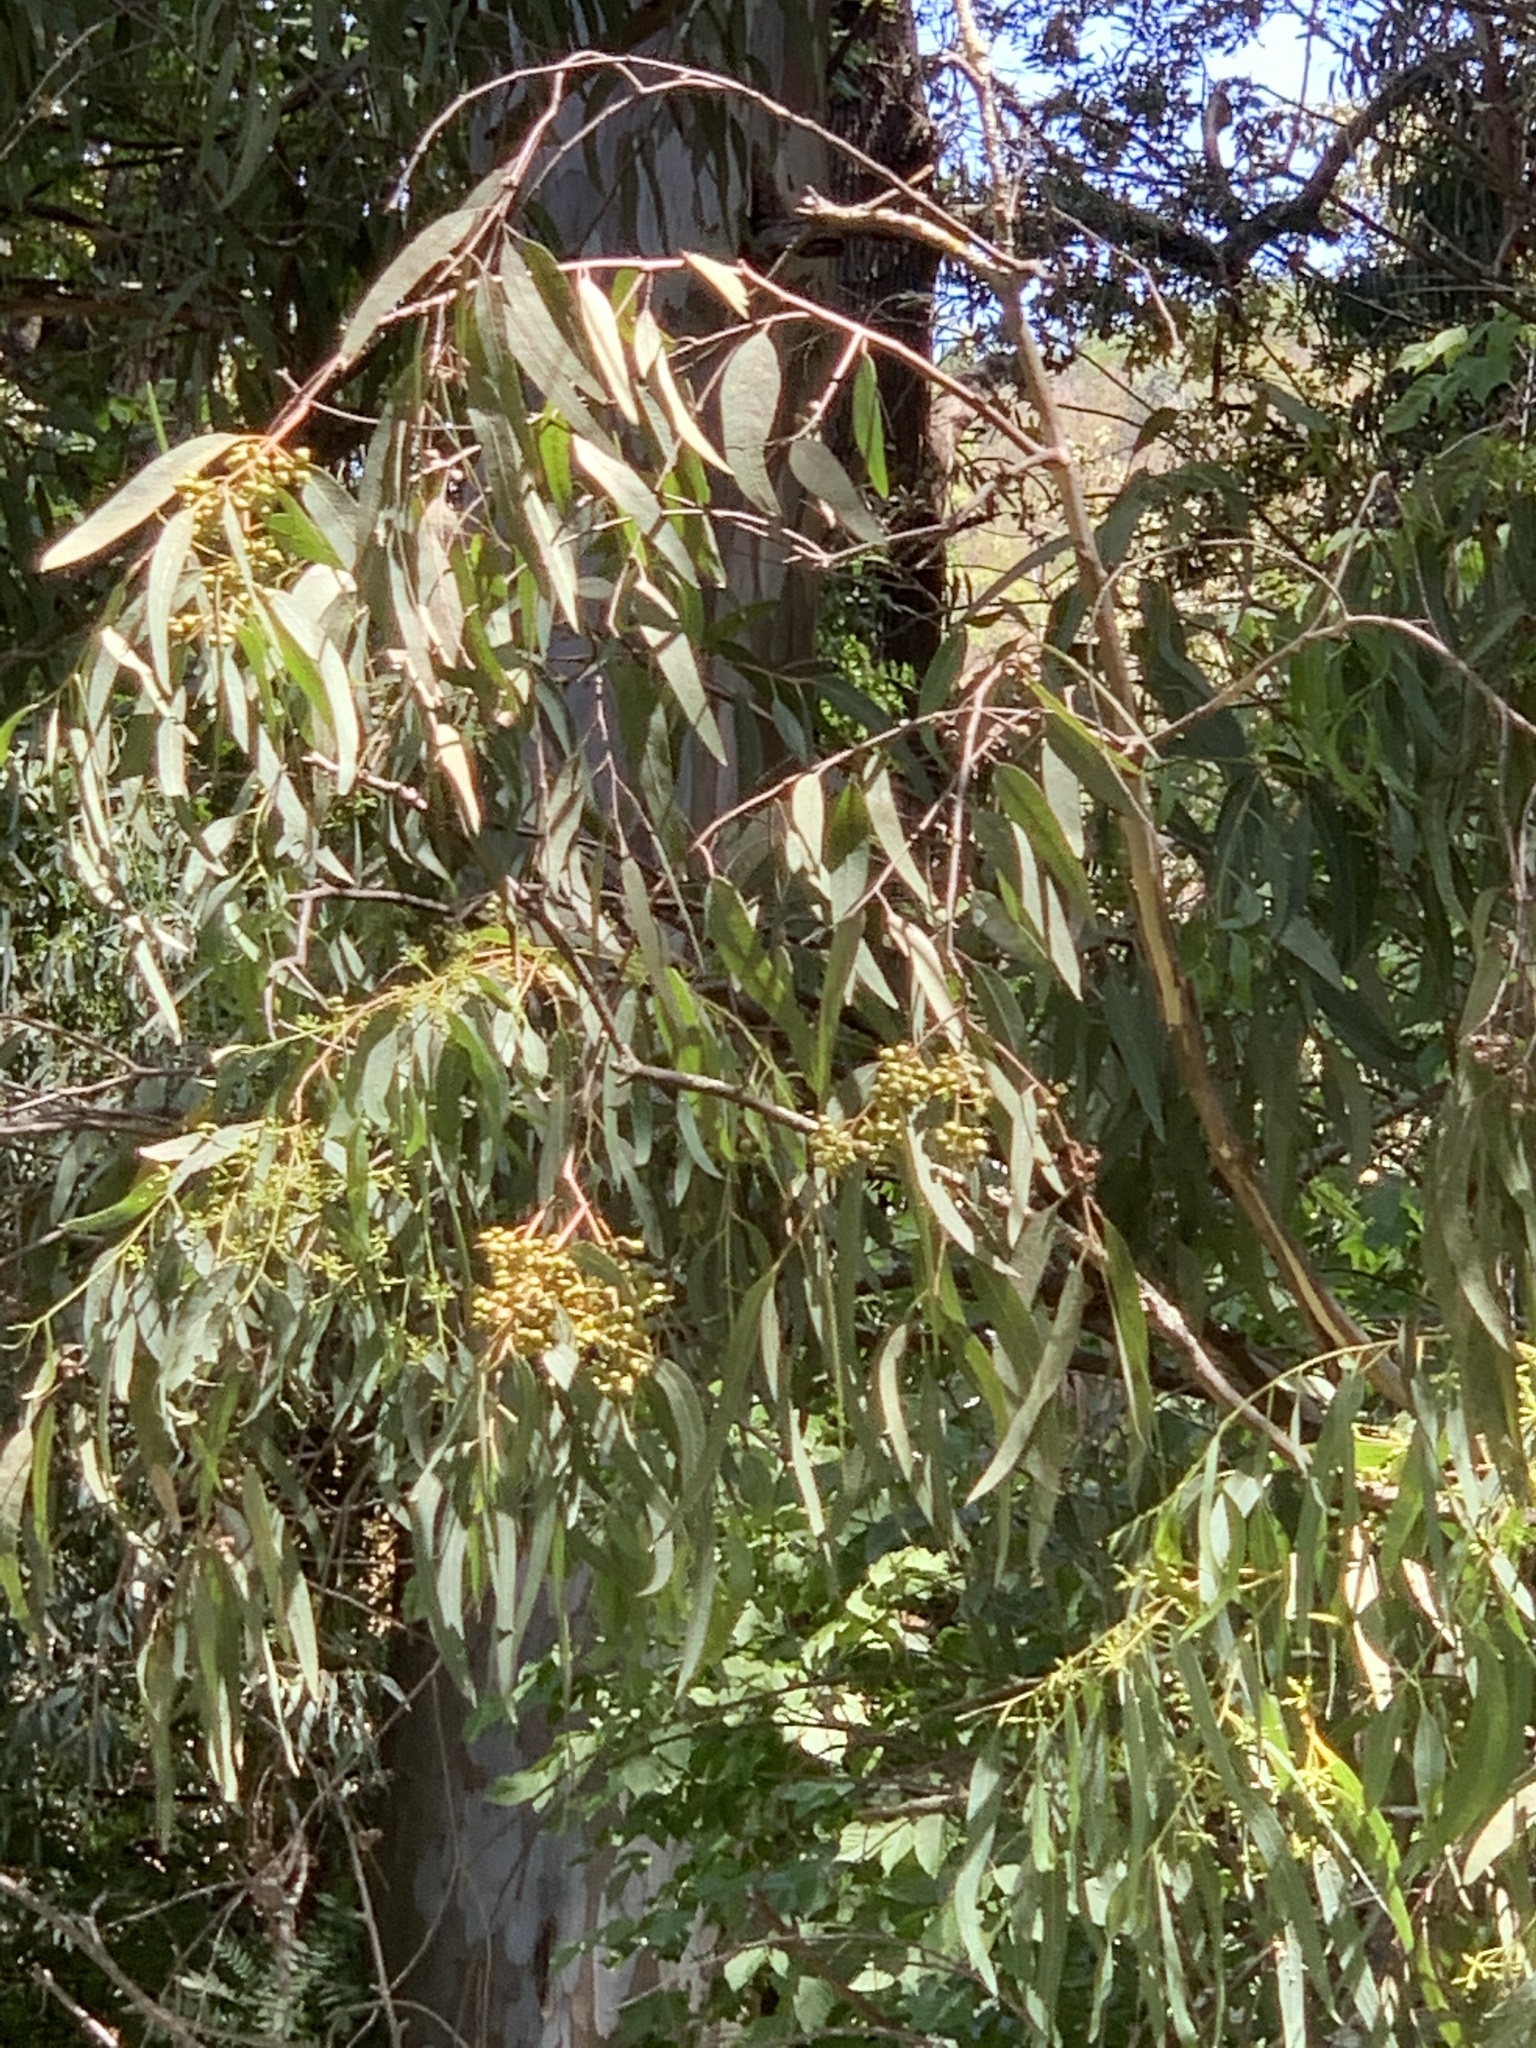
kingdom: Plantae
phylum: Tracheophyta
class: Magnoliopsida
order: Myrtales
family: Myrtaceae
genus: Eucalyptus
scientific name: Eucalyptus camaldulensis
